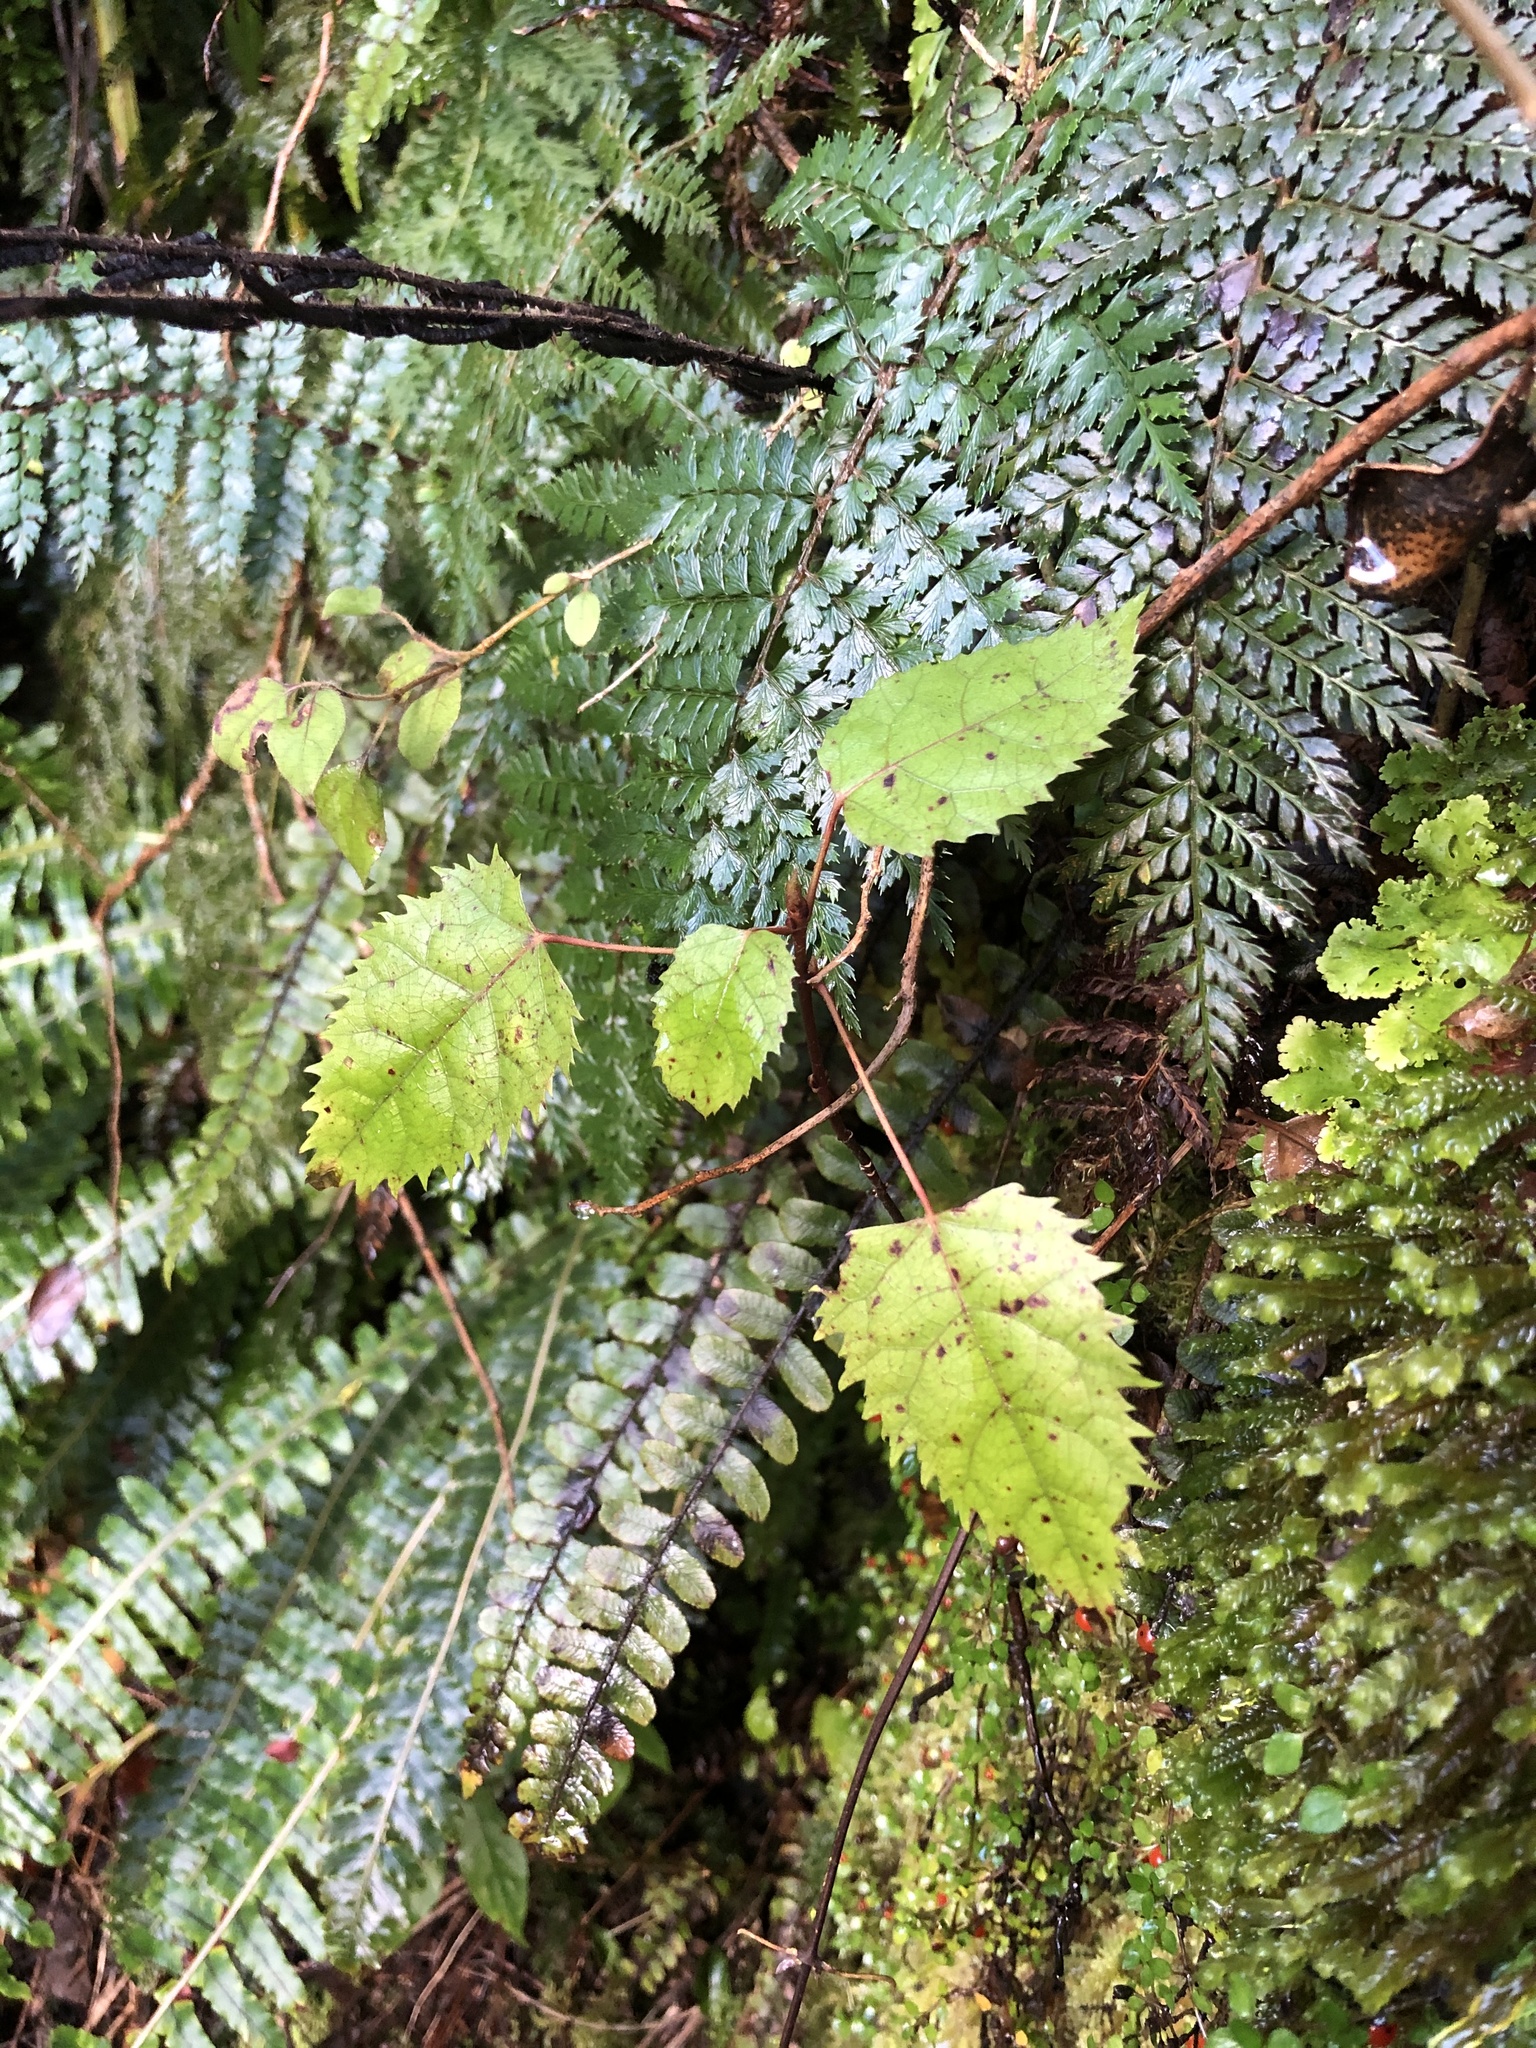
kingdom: Plantae
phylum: Tracheophyta
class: Magnoliopsida
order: Oxalidales
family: Elaeocarpaceae
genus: Aristotelia
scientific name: Aristotelia serrata
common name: New zealand wineberry
